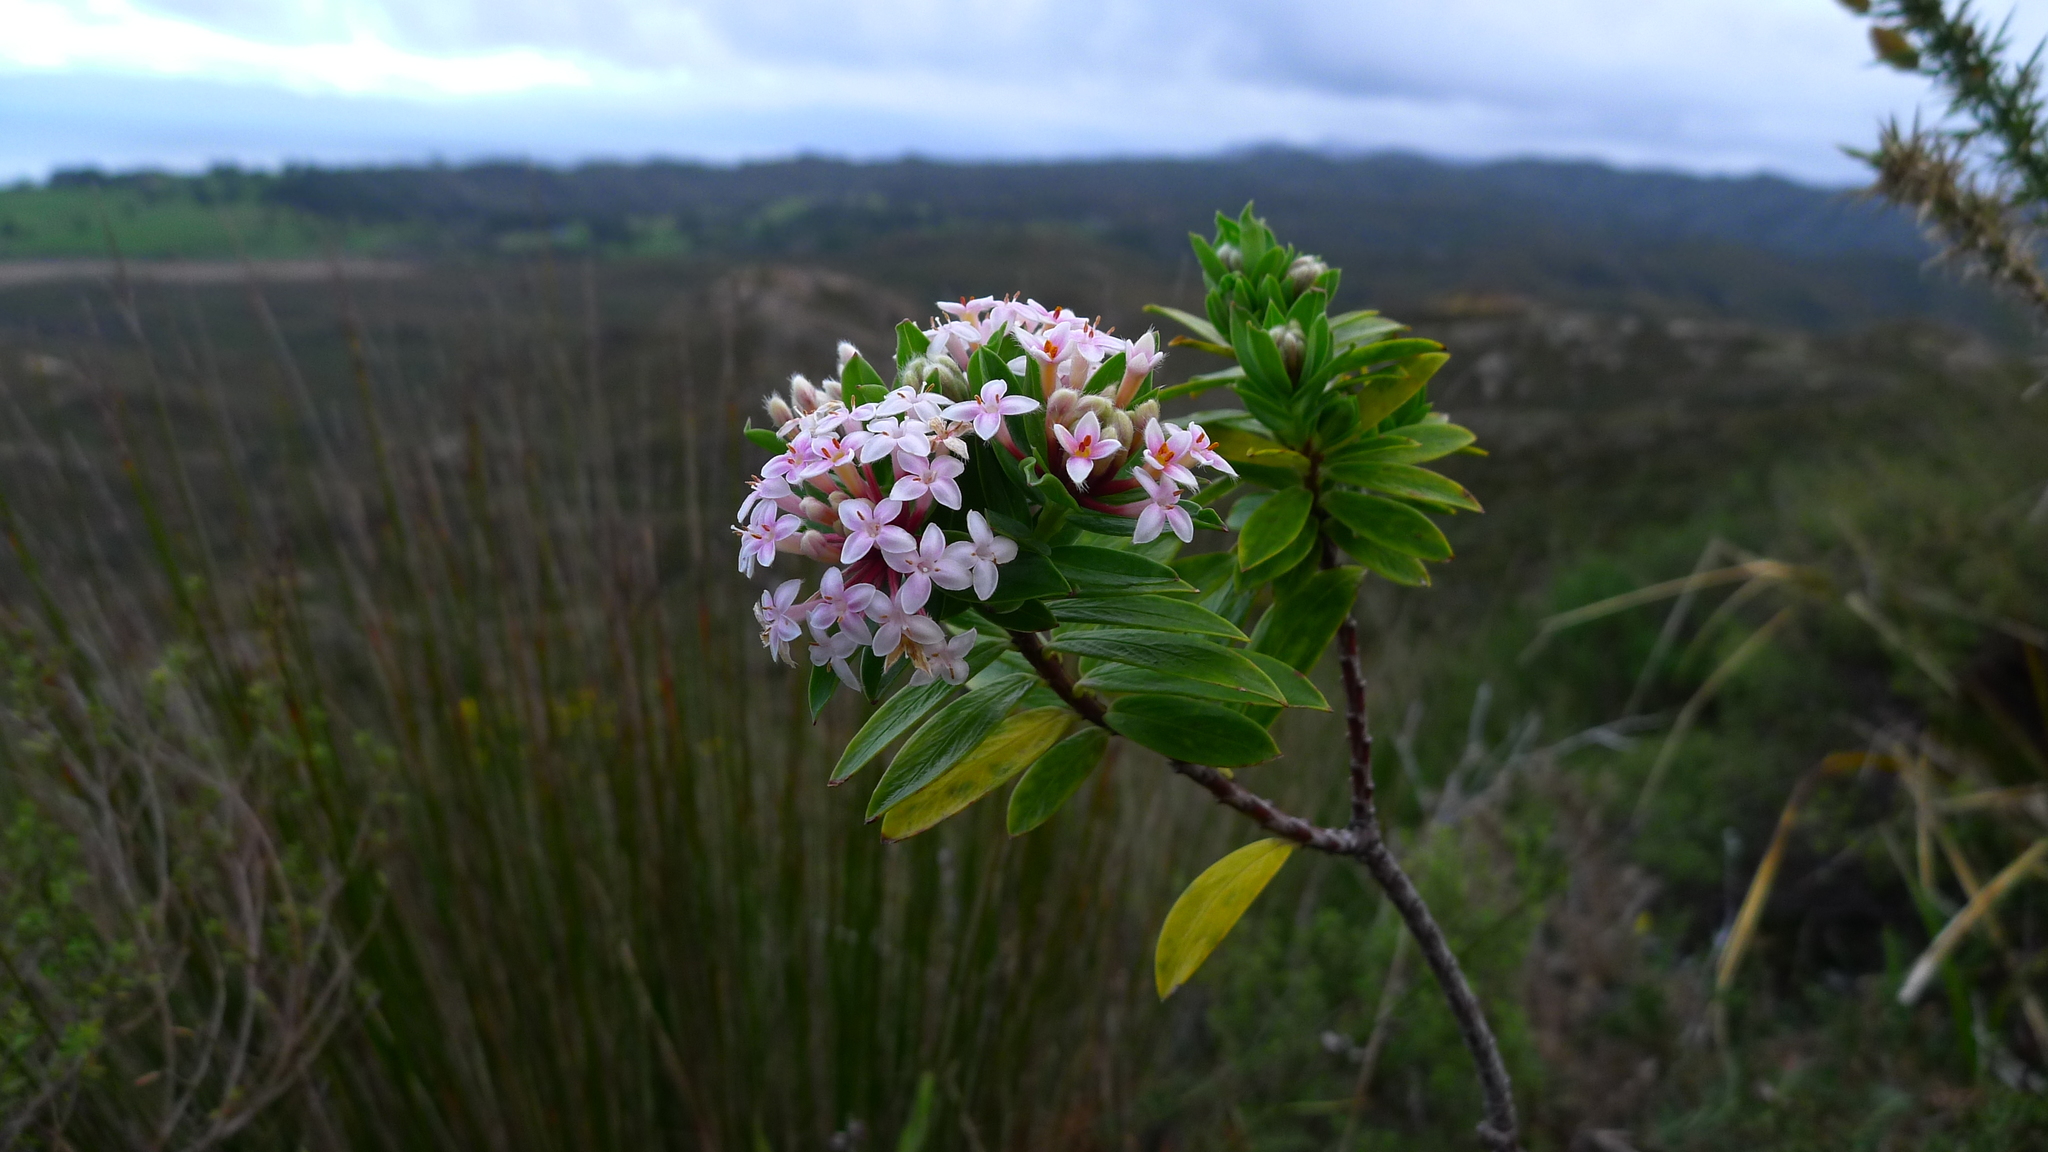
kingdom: Plantae
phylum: Tracheophyta
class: Magnoliopsida
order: Malvales
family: Thymelaeaceae
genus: Pimelea
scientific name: Pimelea longifolia
